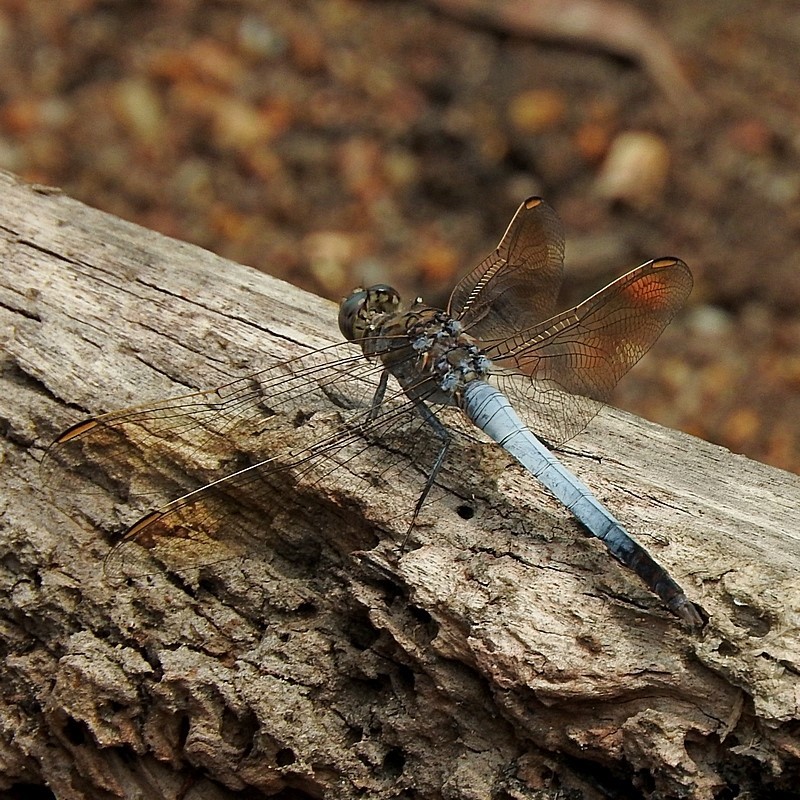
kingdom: Animalia
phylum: Arthropoda
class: Insecta
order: Odonata
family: Libellulidae
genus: Orthetrum
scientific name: Orthetrum caledonicum
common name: Blue skimmer
